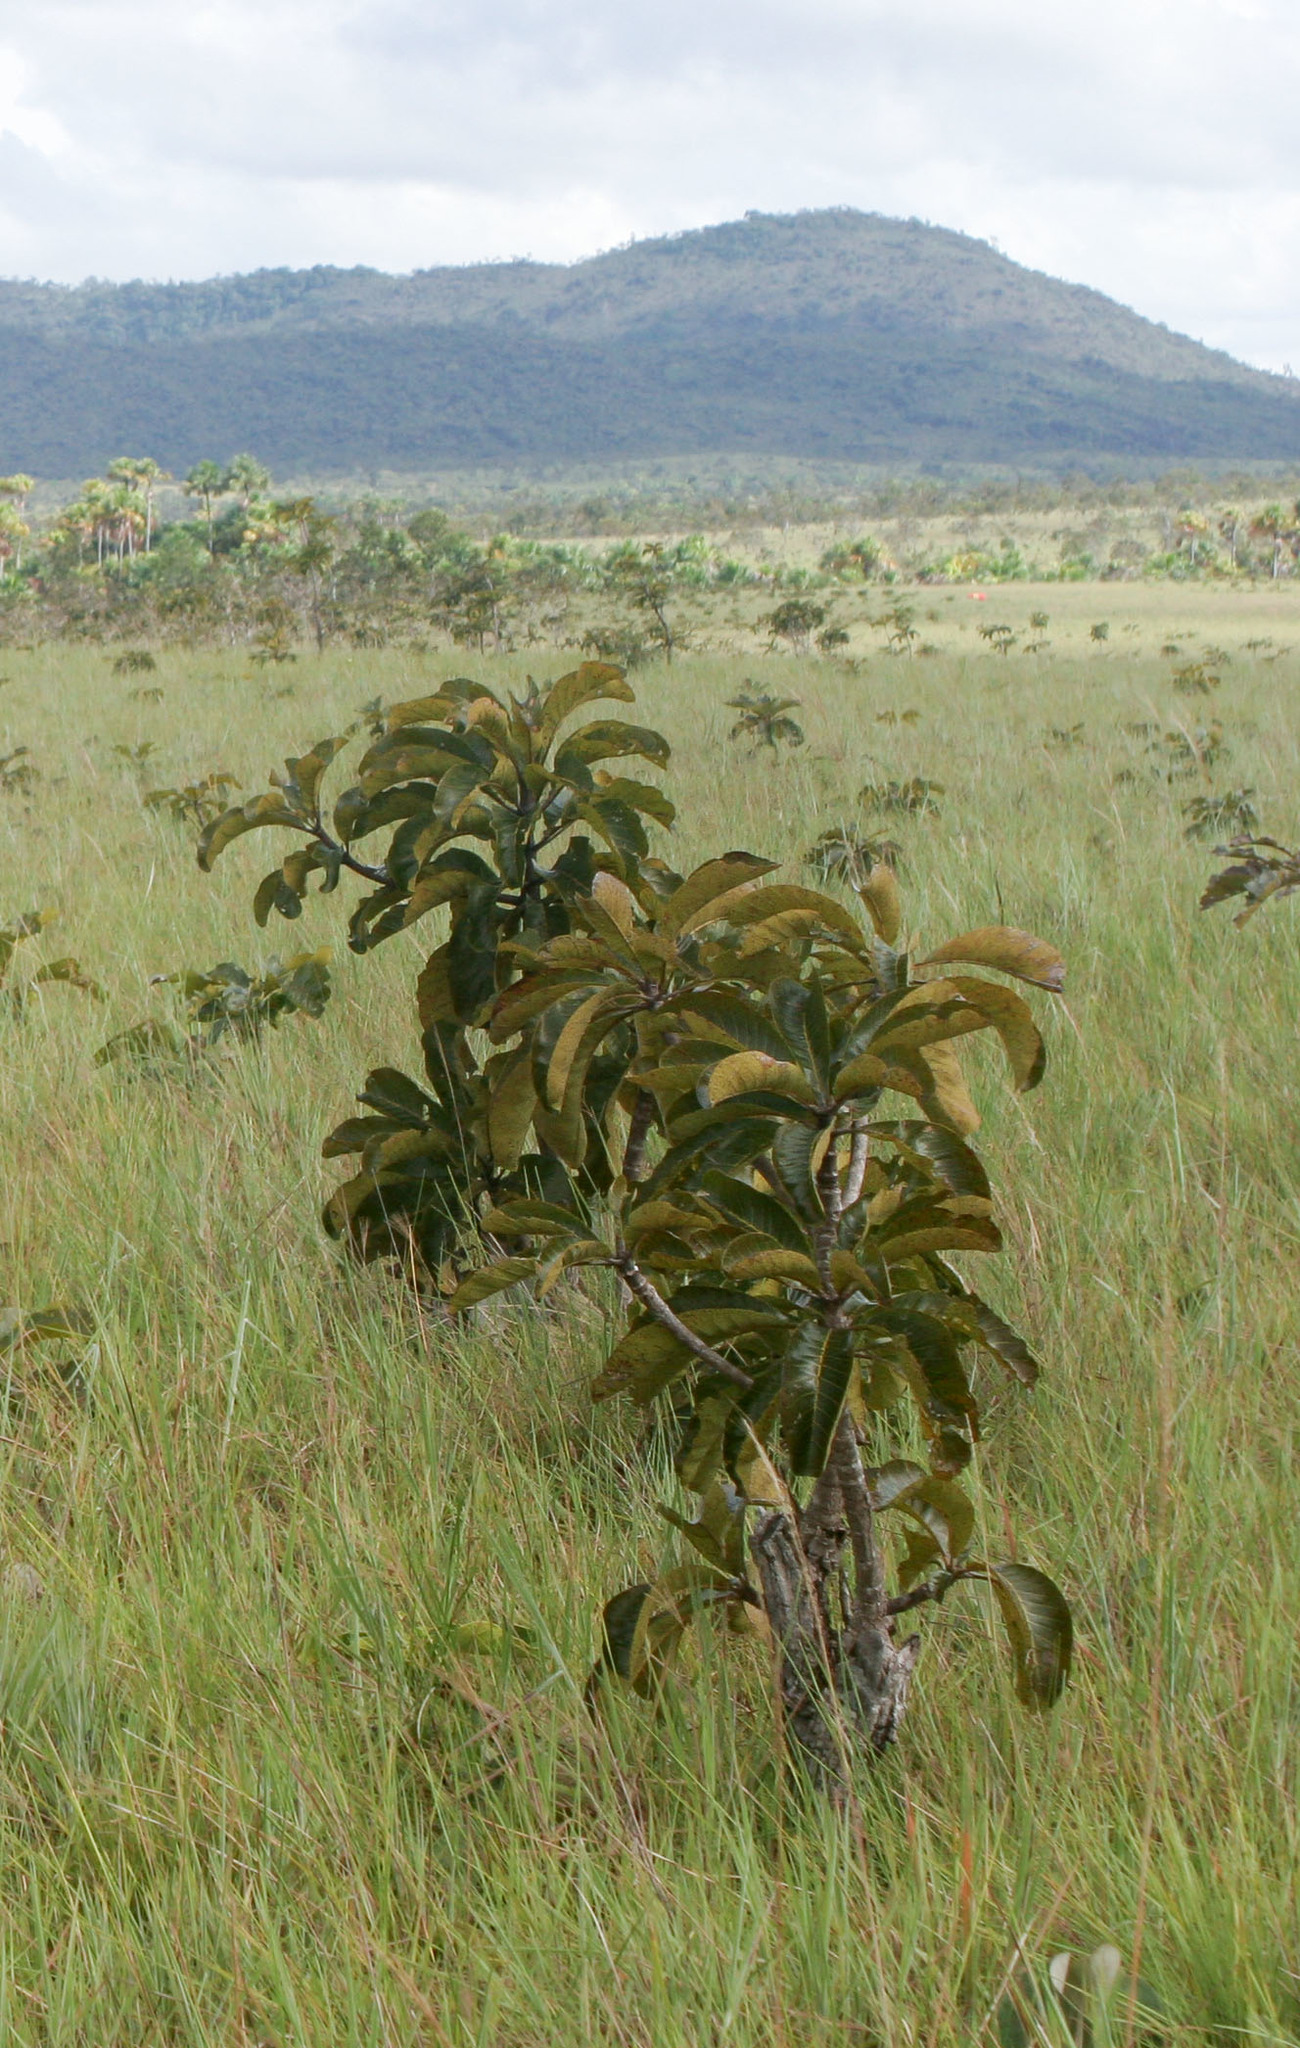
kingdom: Plantae
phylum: Tracheophyta
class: Magnoliopsida
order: Myrtales
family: Vochysiaceae
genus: Salvertia
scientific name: Salvertia convallariodora
